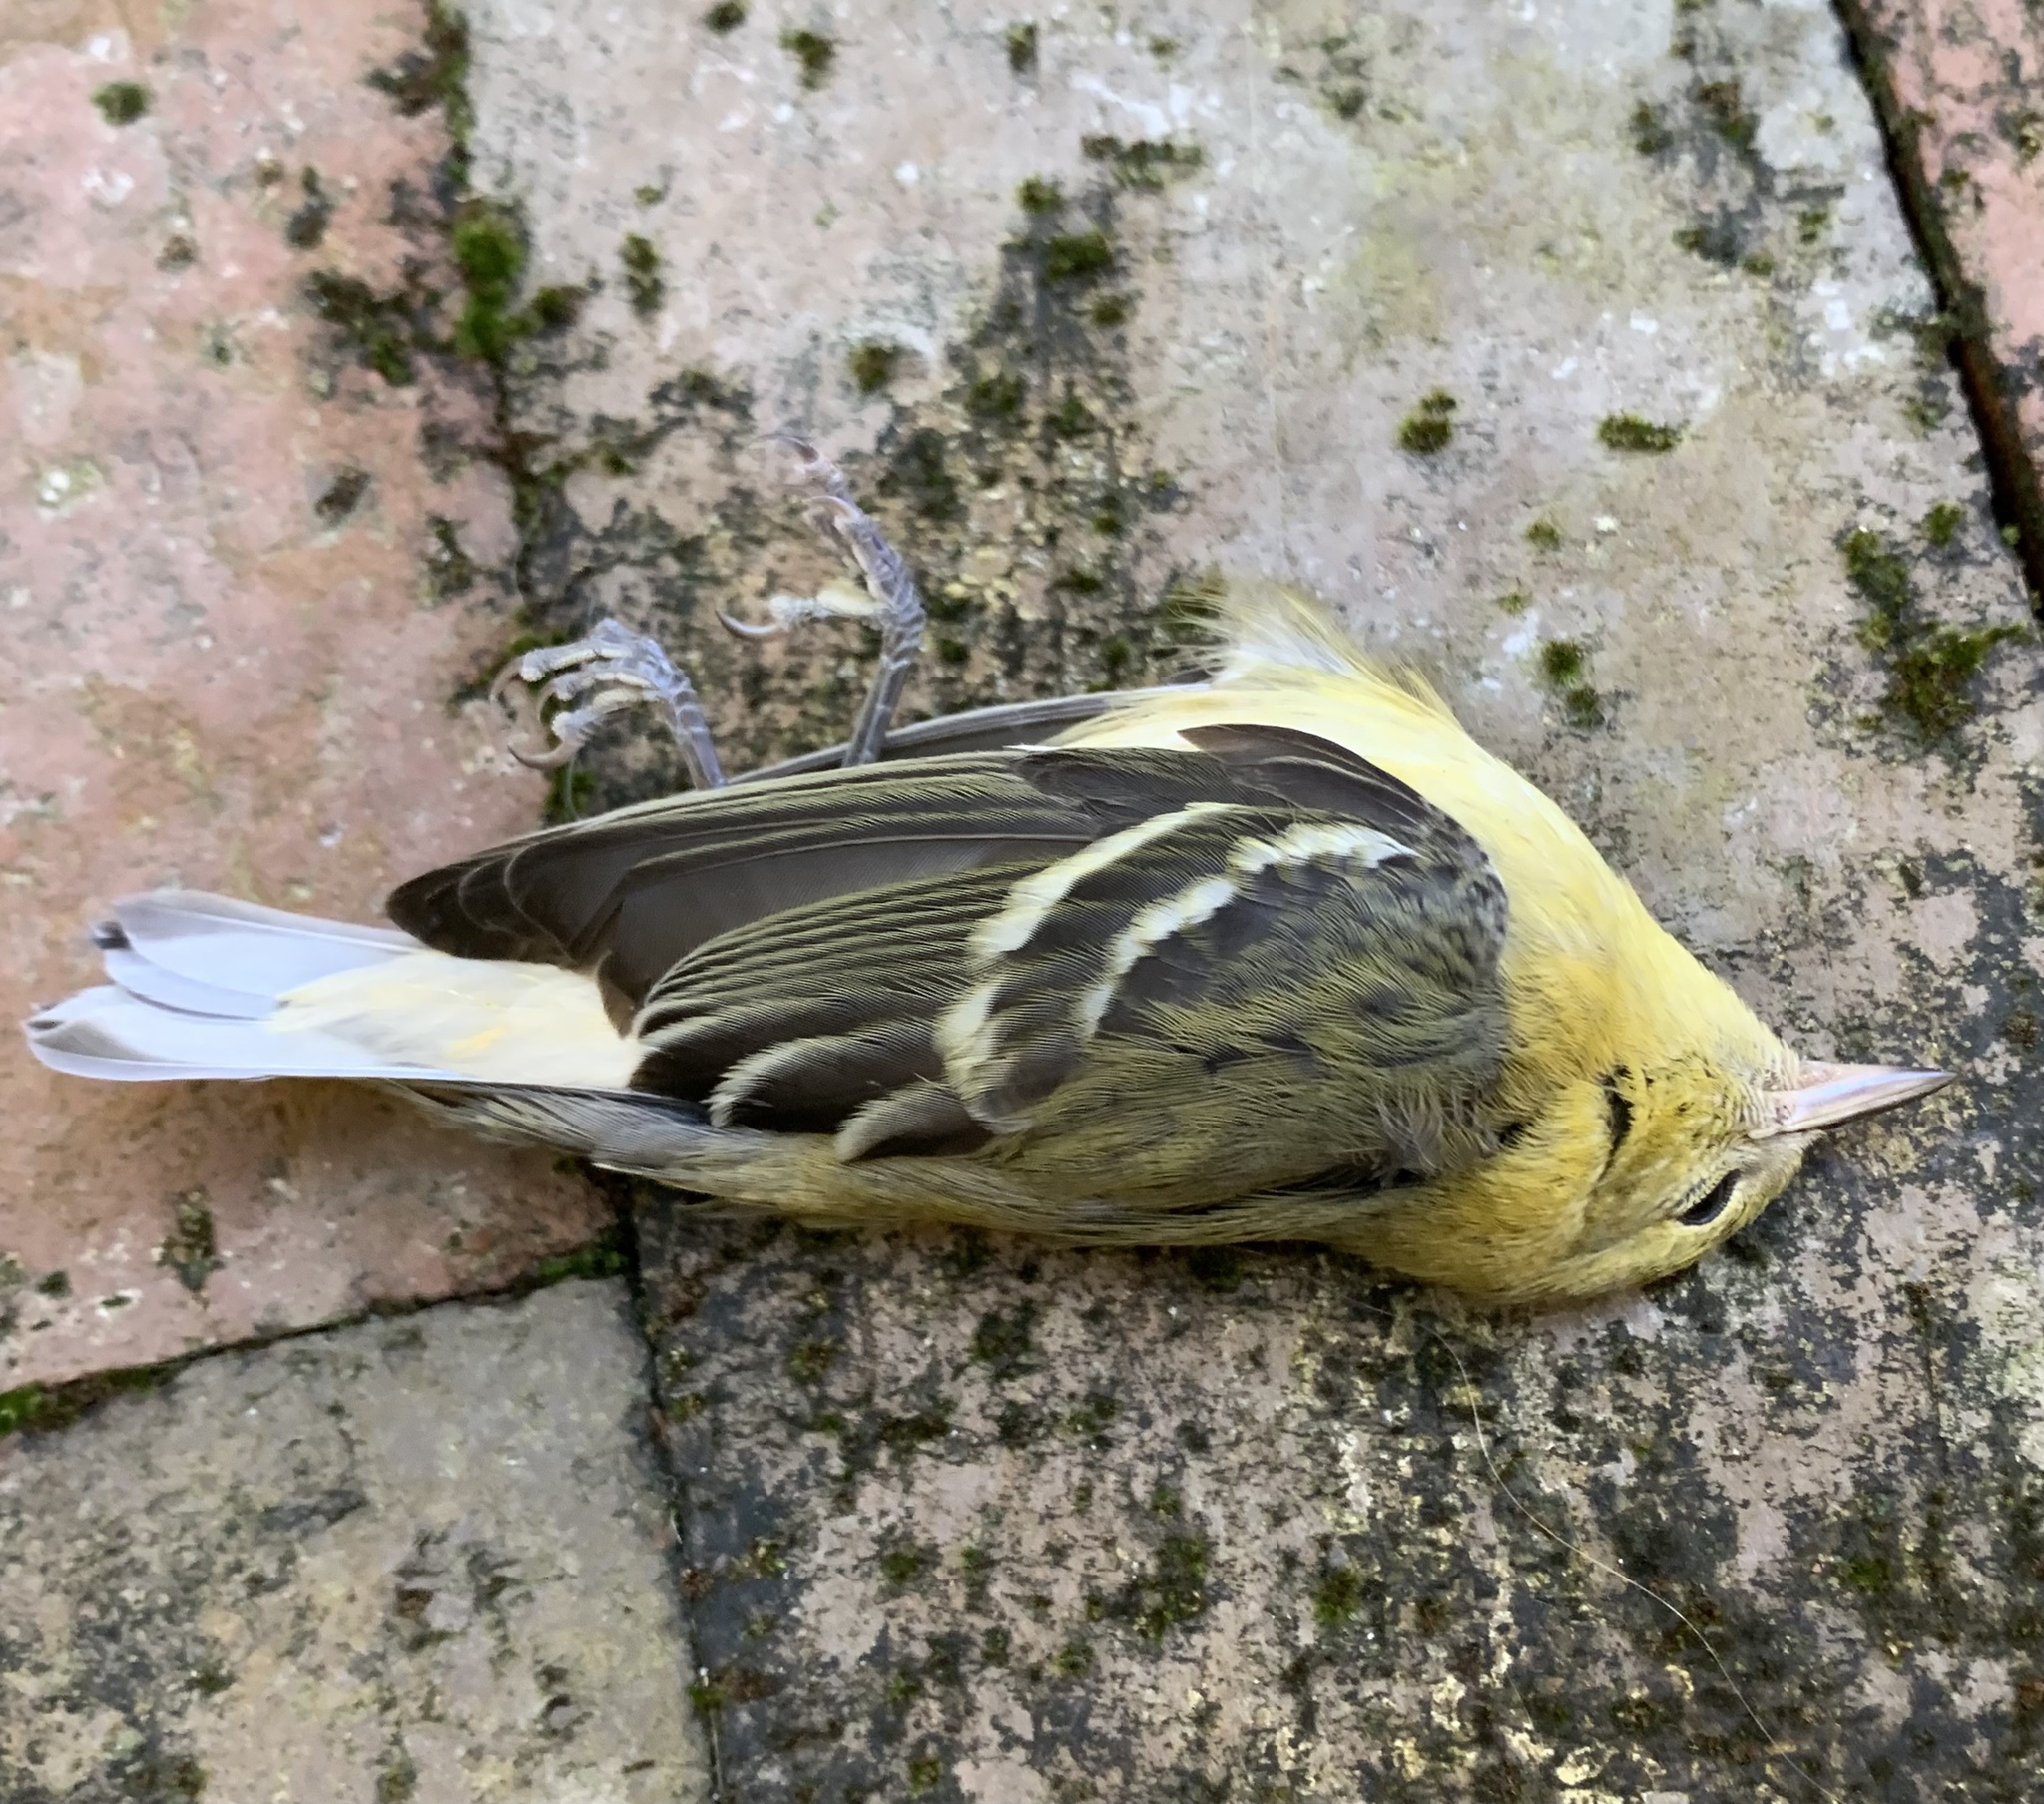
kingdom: Animalia
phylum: Chordata
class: Aves
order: Passeriformes
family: Parulidae
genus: Setophaga
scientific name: Setophaga castanea
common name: Bay-breasted warbler
